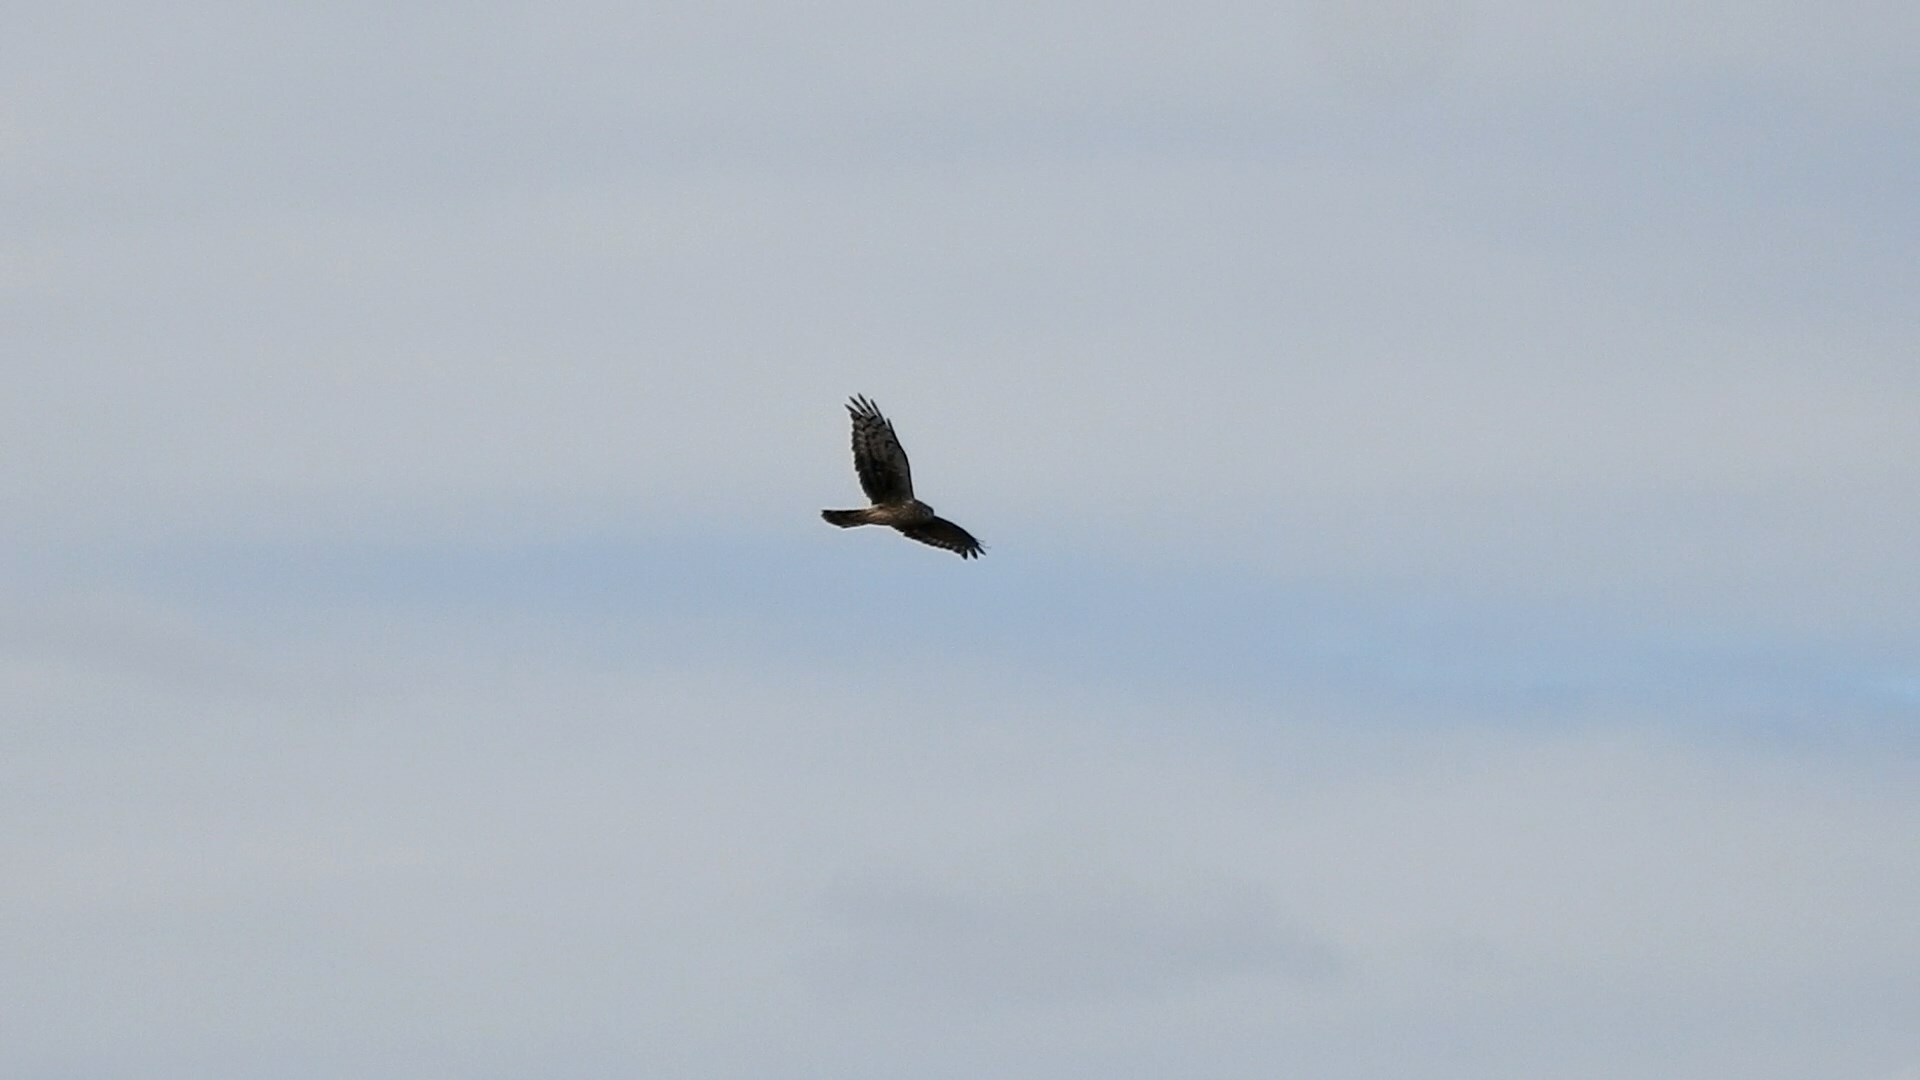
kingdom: Animalia
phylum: Chordata
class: Aves
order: Accipitriformes
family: Accipitridae
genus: Circus
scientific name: Circus cyaneus
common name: Hen harrier
